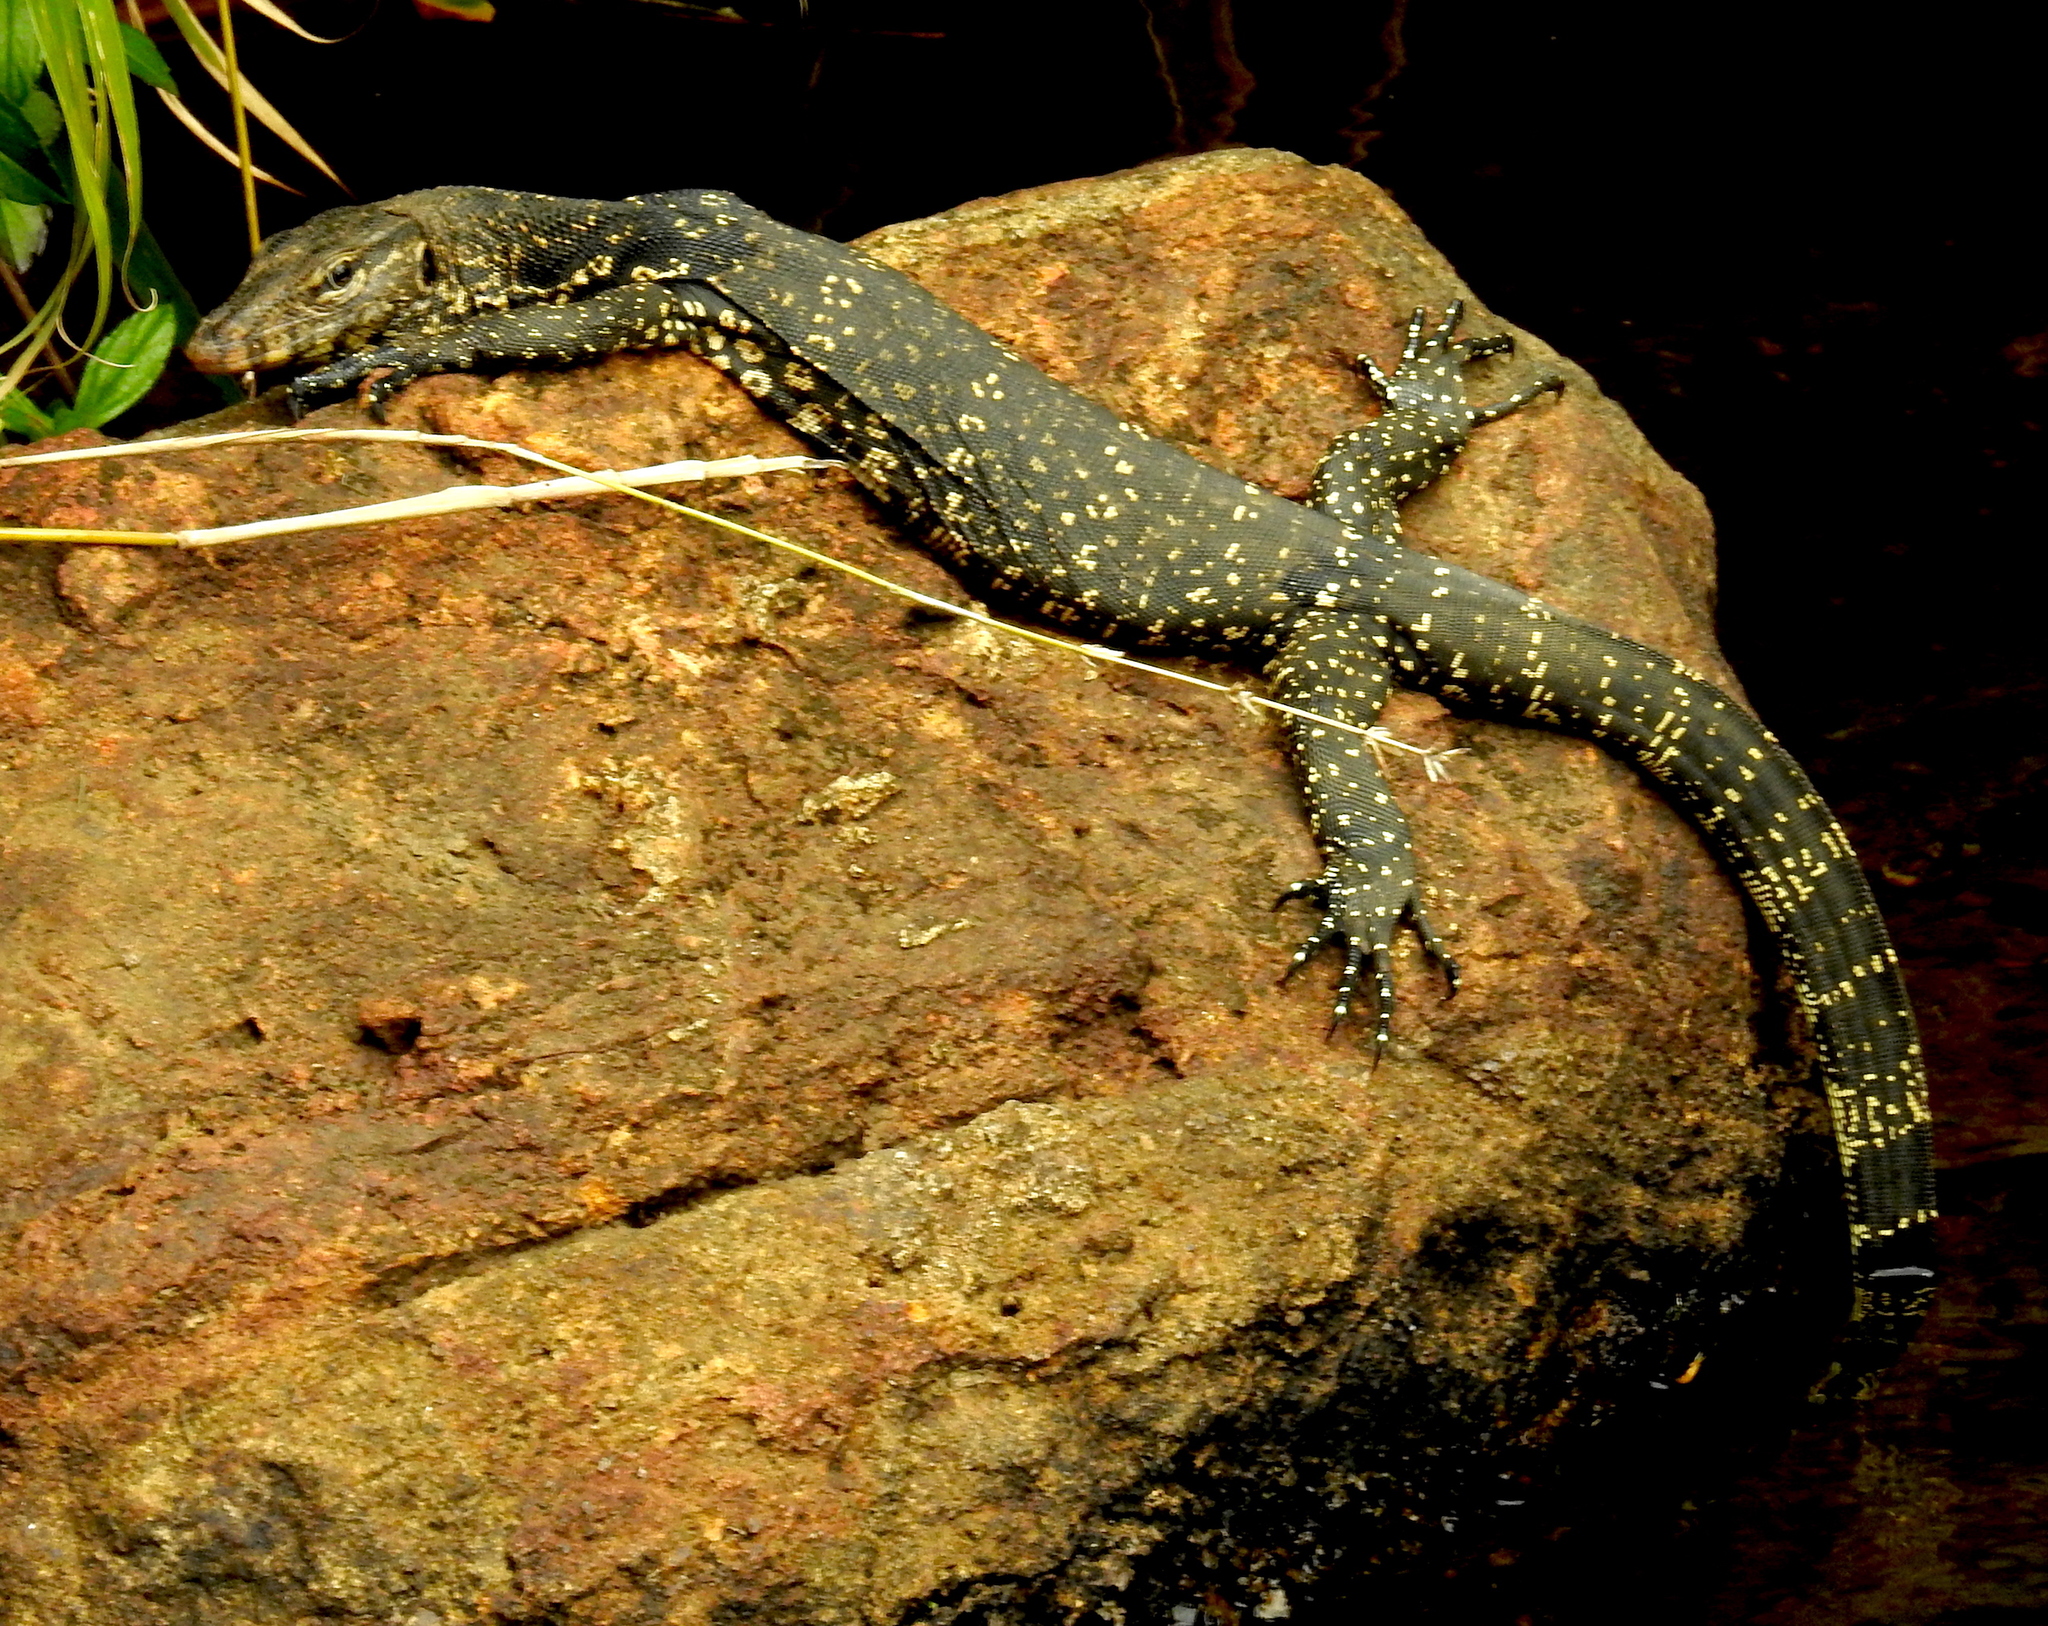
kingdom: Animalia
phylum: Chordata
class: Squamata
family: Varanidae
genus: Varanus
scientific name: Varanus salvator
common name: Common water monitor
